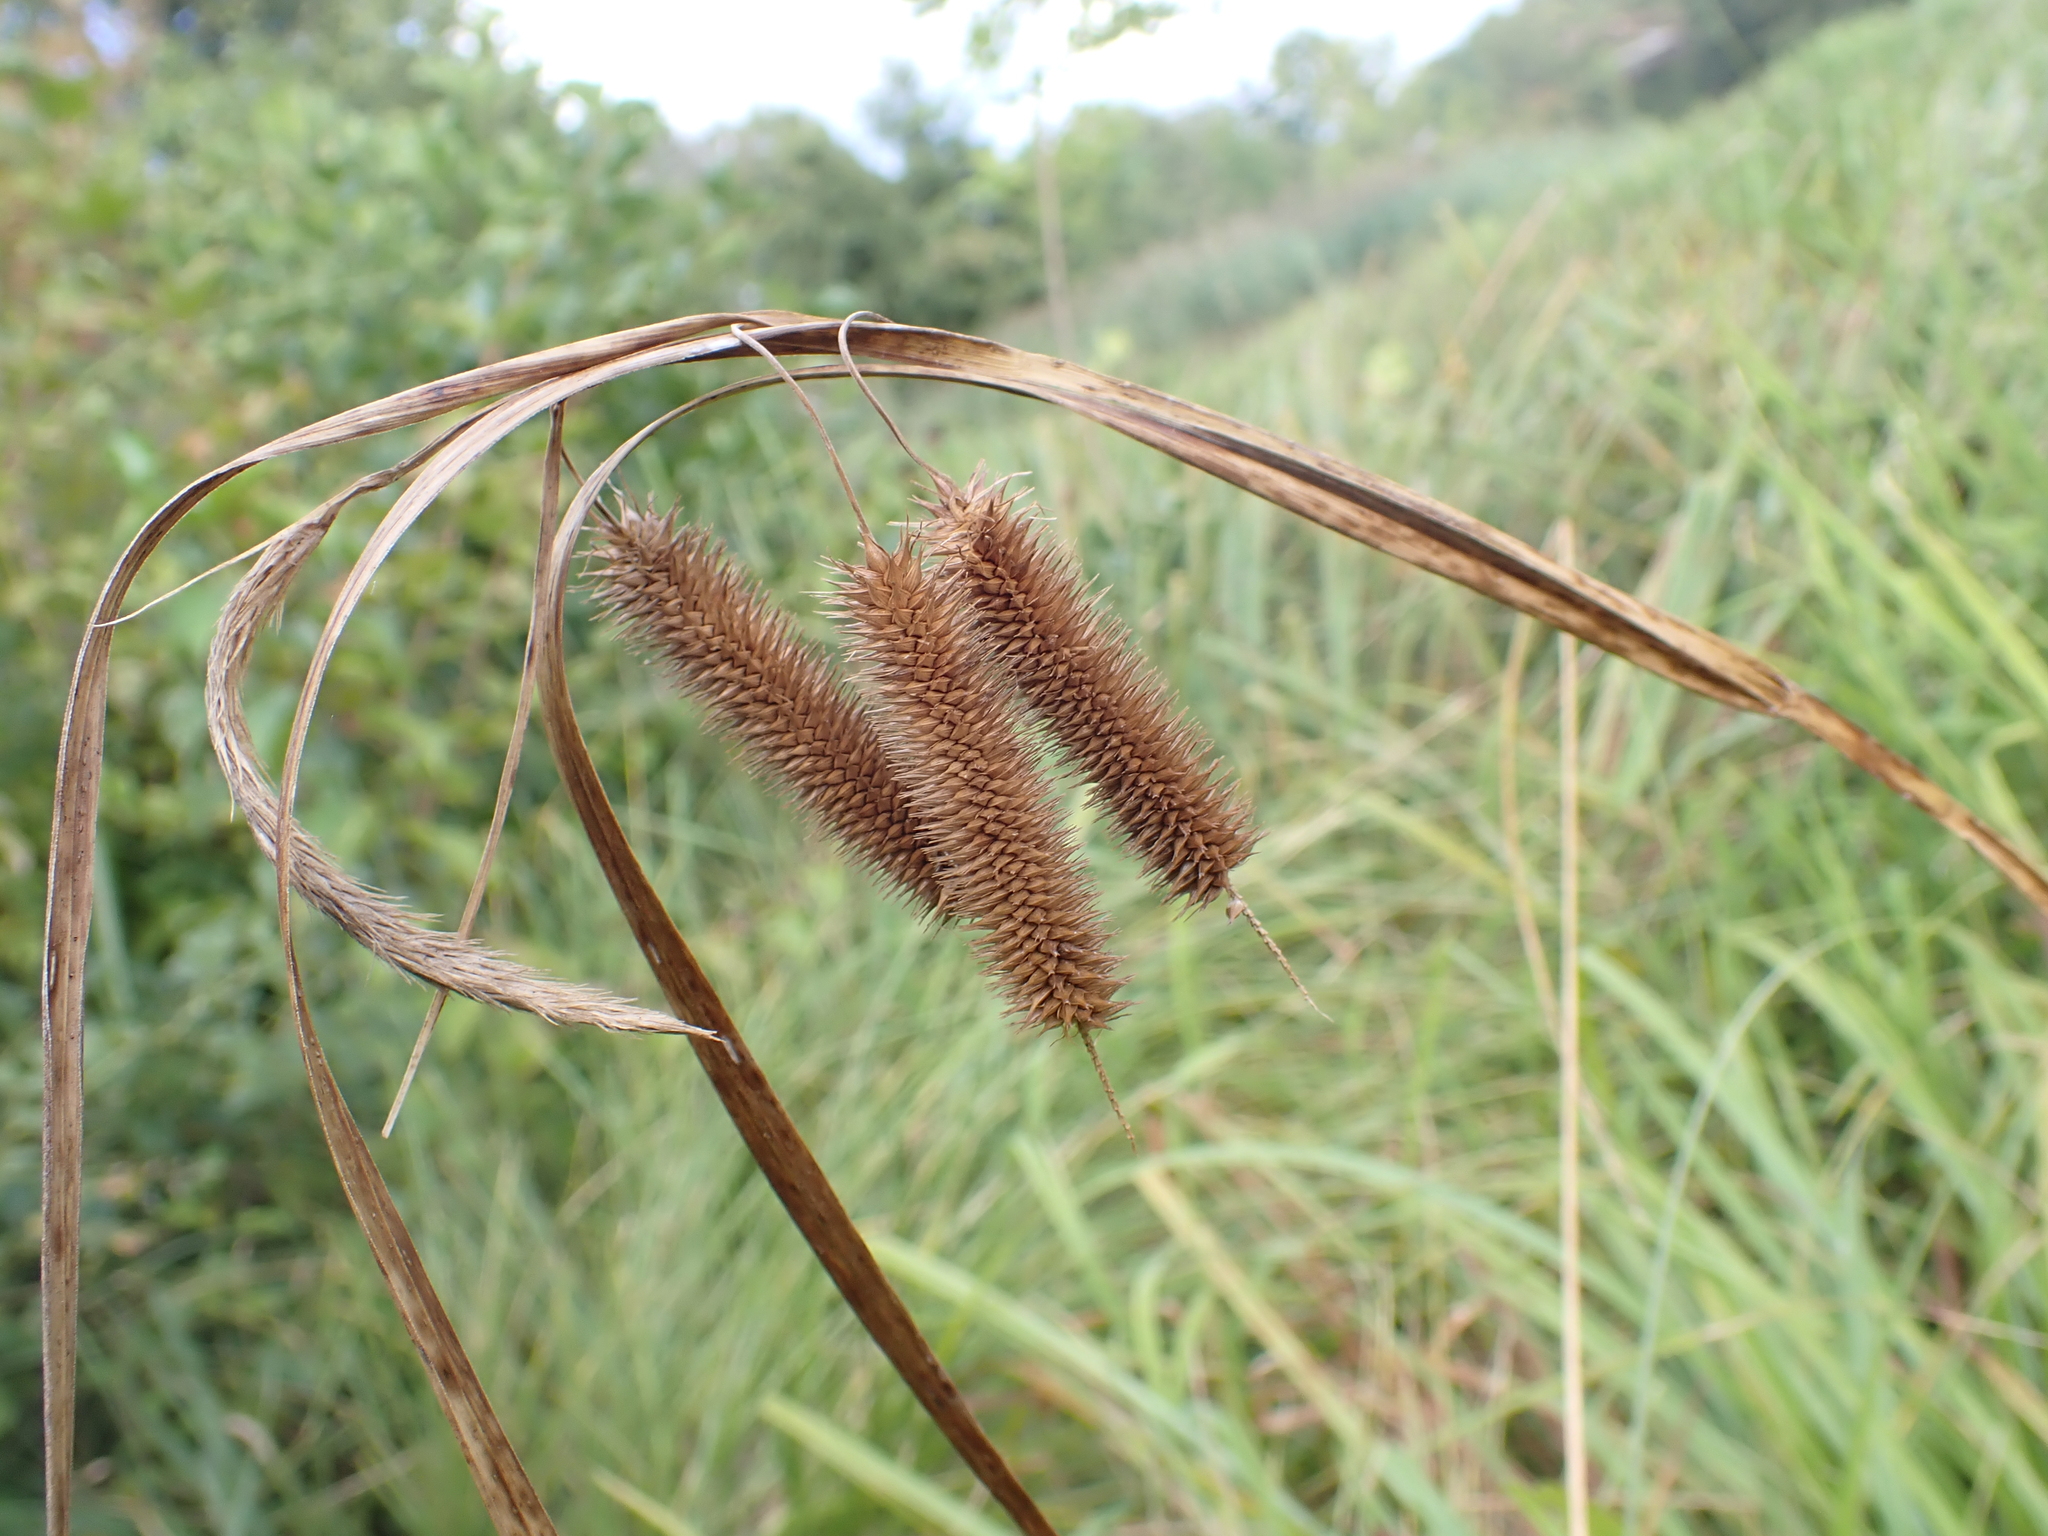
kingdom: Plantae
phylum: Tracheophyta
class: Liliopsida
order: Poales
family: Cyperaceae
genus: Carex
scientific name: Carex pseudocyperus
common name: Cyperus sedge
